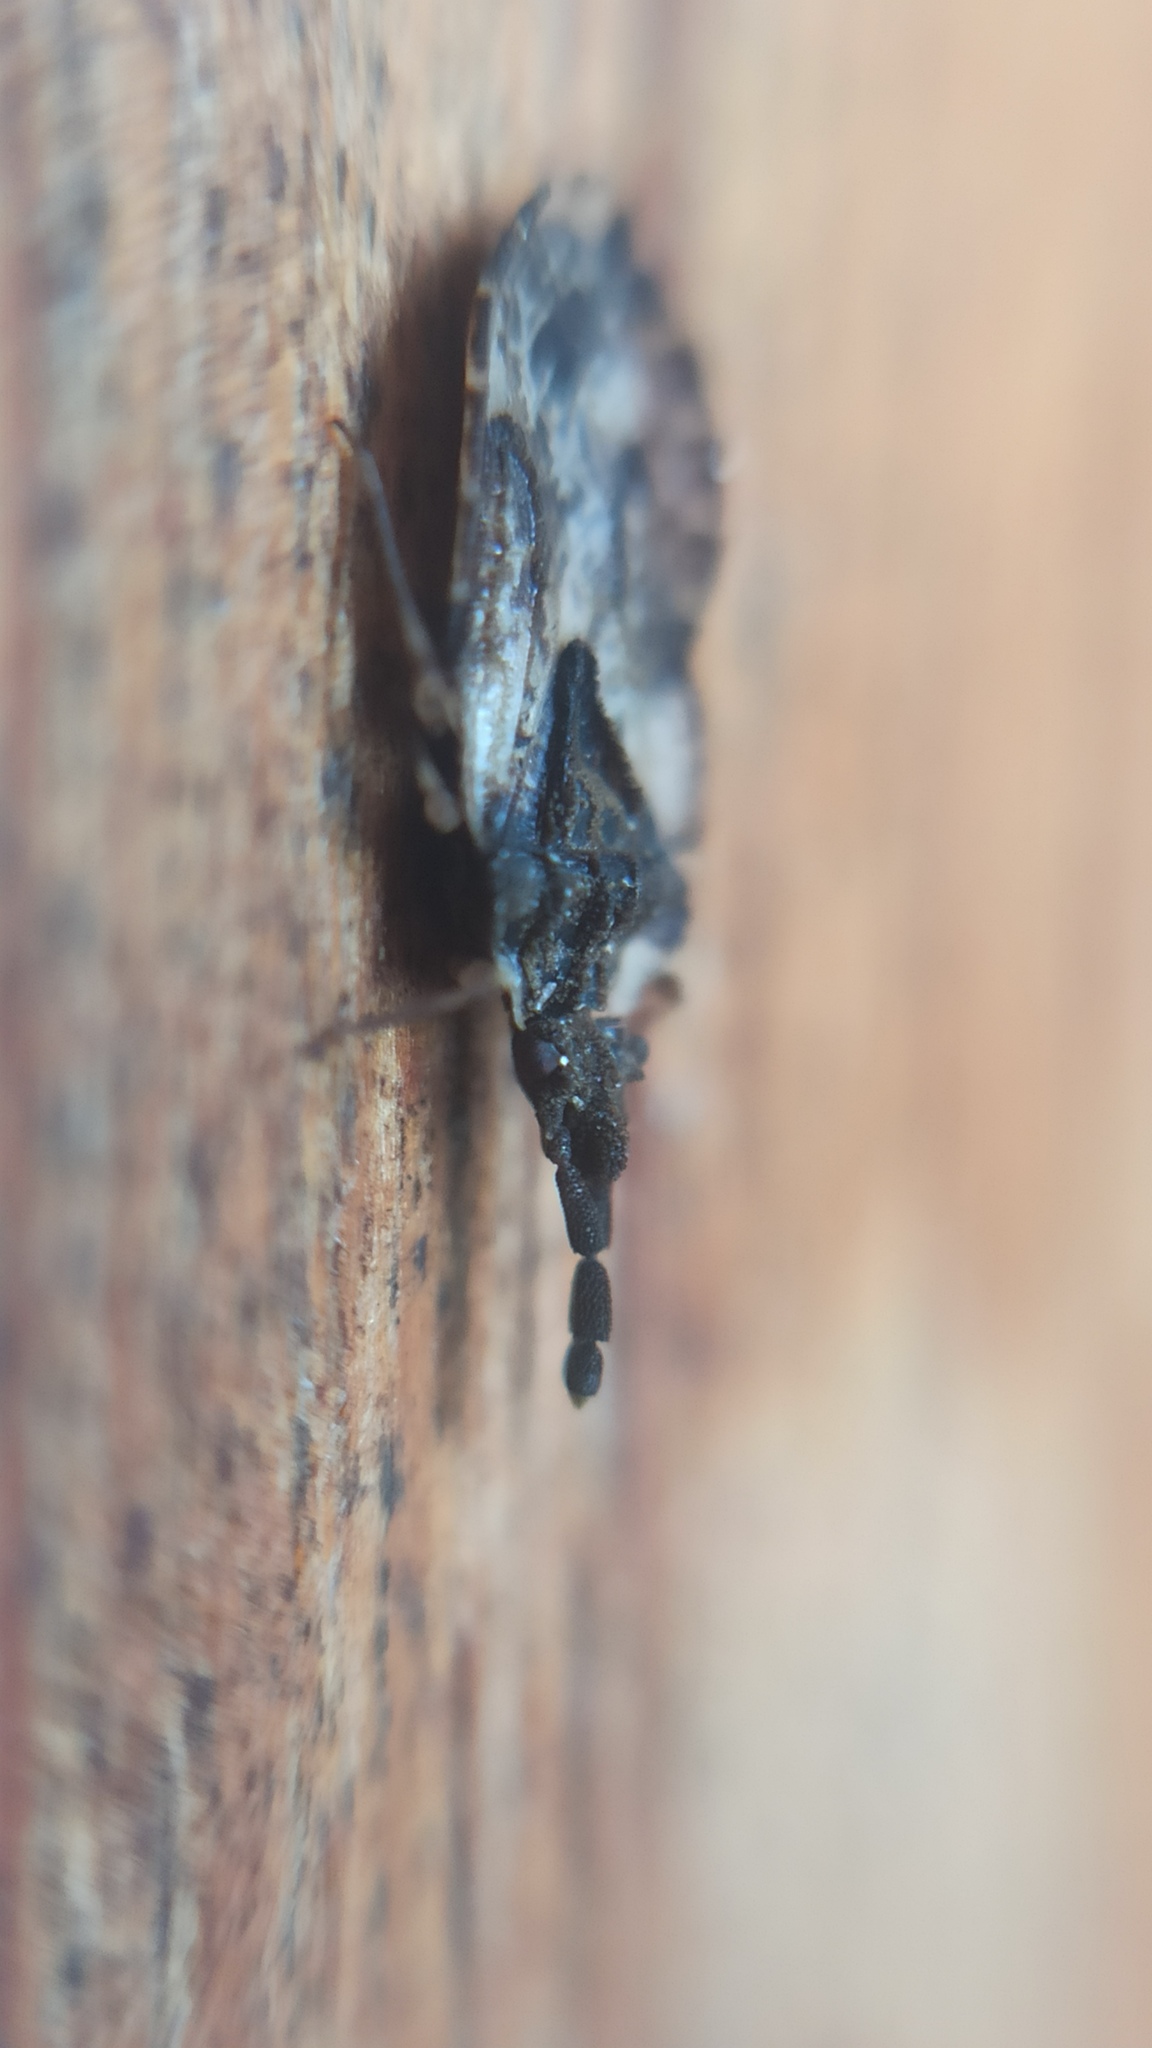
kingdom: Animalia
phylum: Arthropoda
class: Insecta
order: Hemiptera
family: Aradidae
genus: Aradus
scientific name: Aradus depressus
